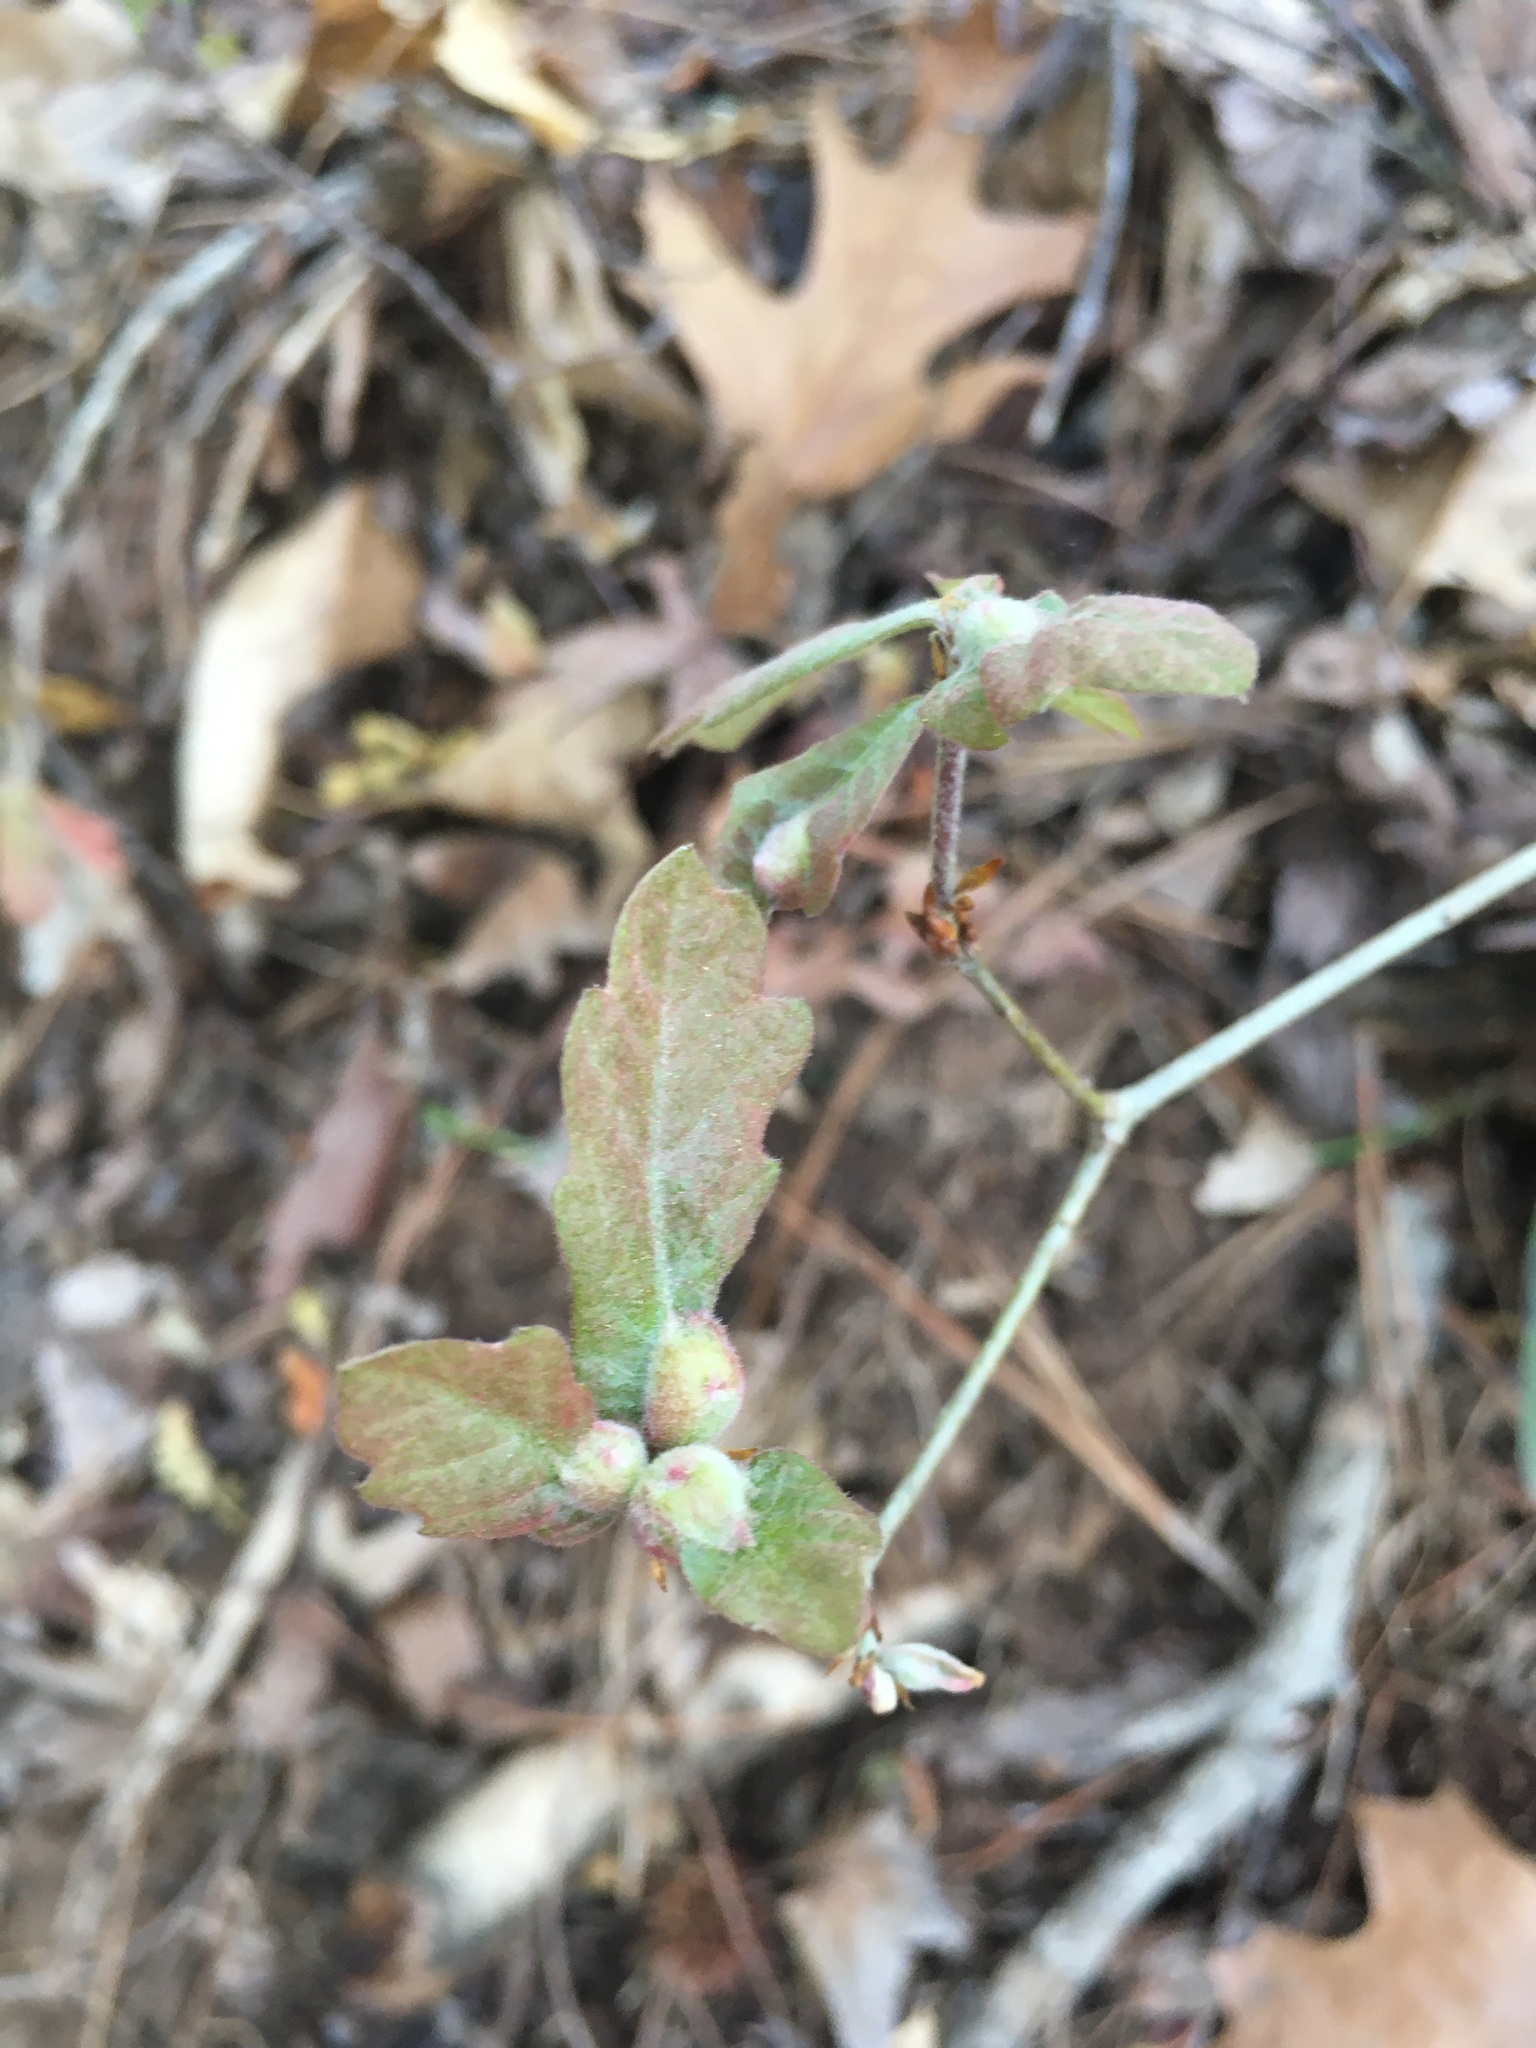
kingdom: Animalia
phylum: Arthropoda
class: Insecta
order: Hymenoptera
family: Cynipidae
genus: Andricus
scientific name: Andricus
